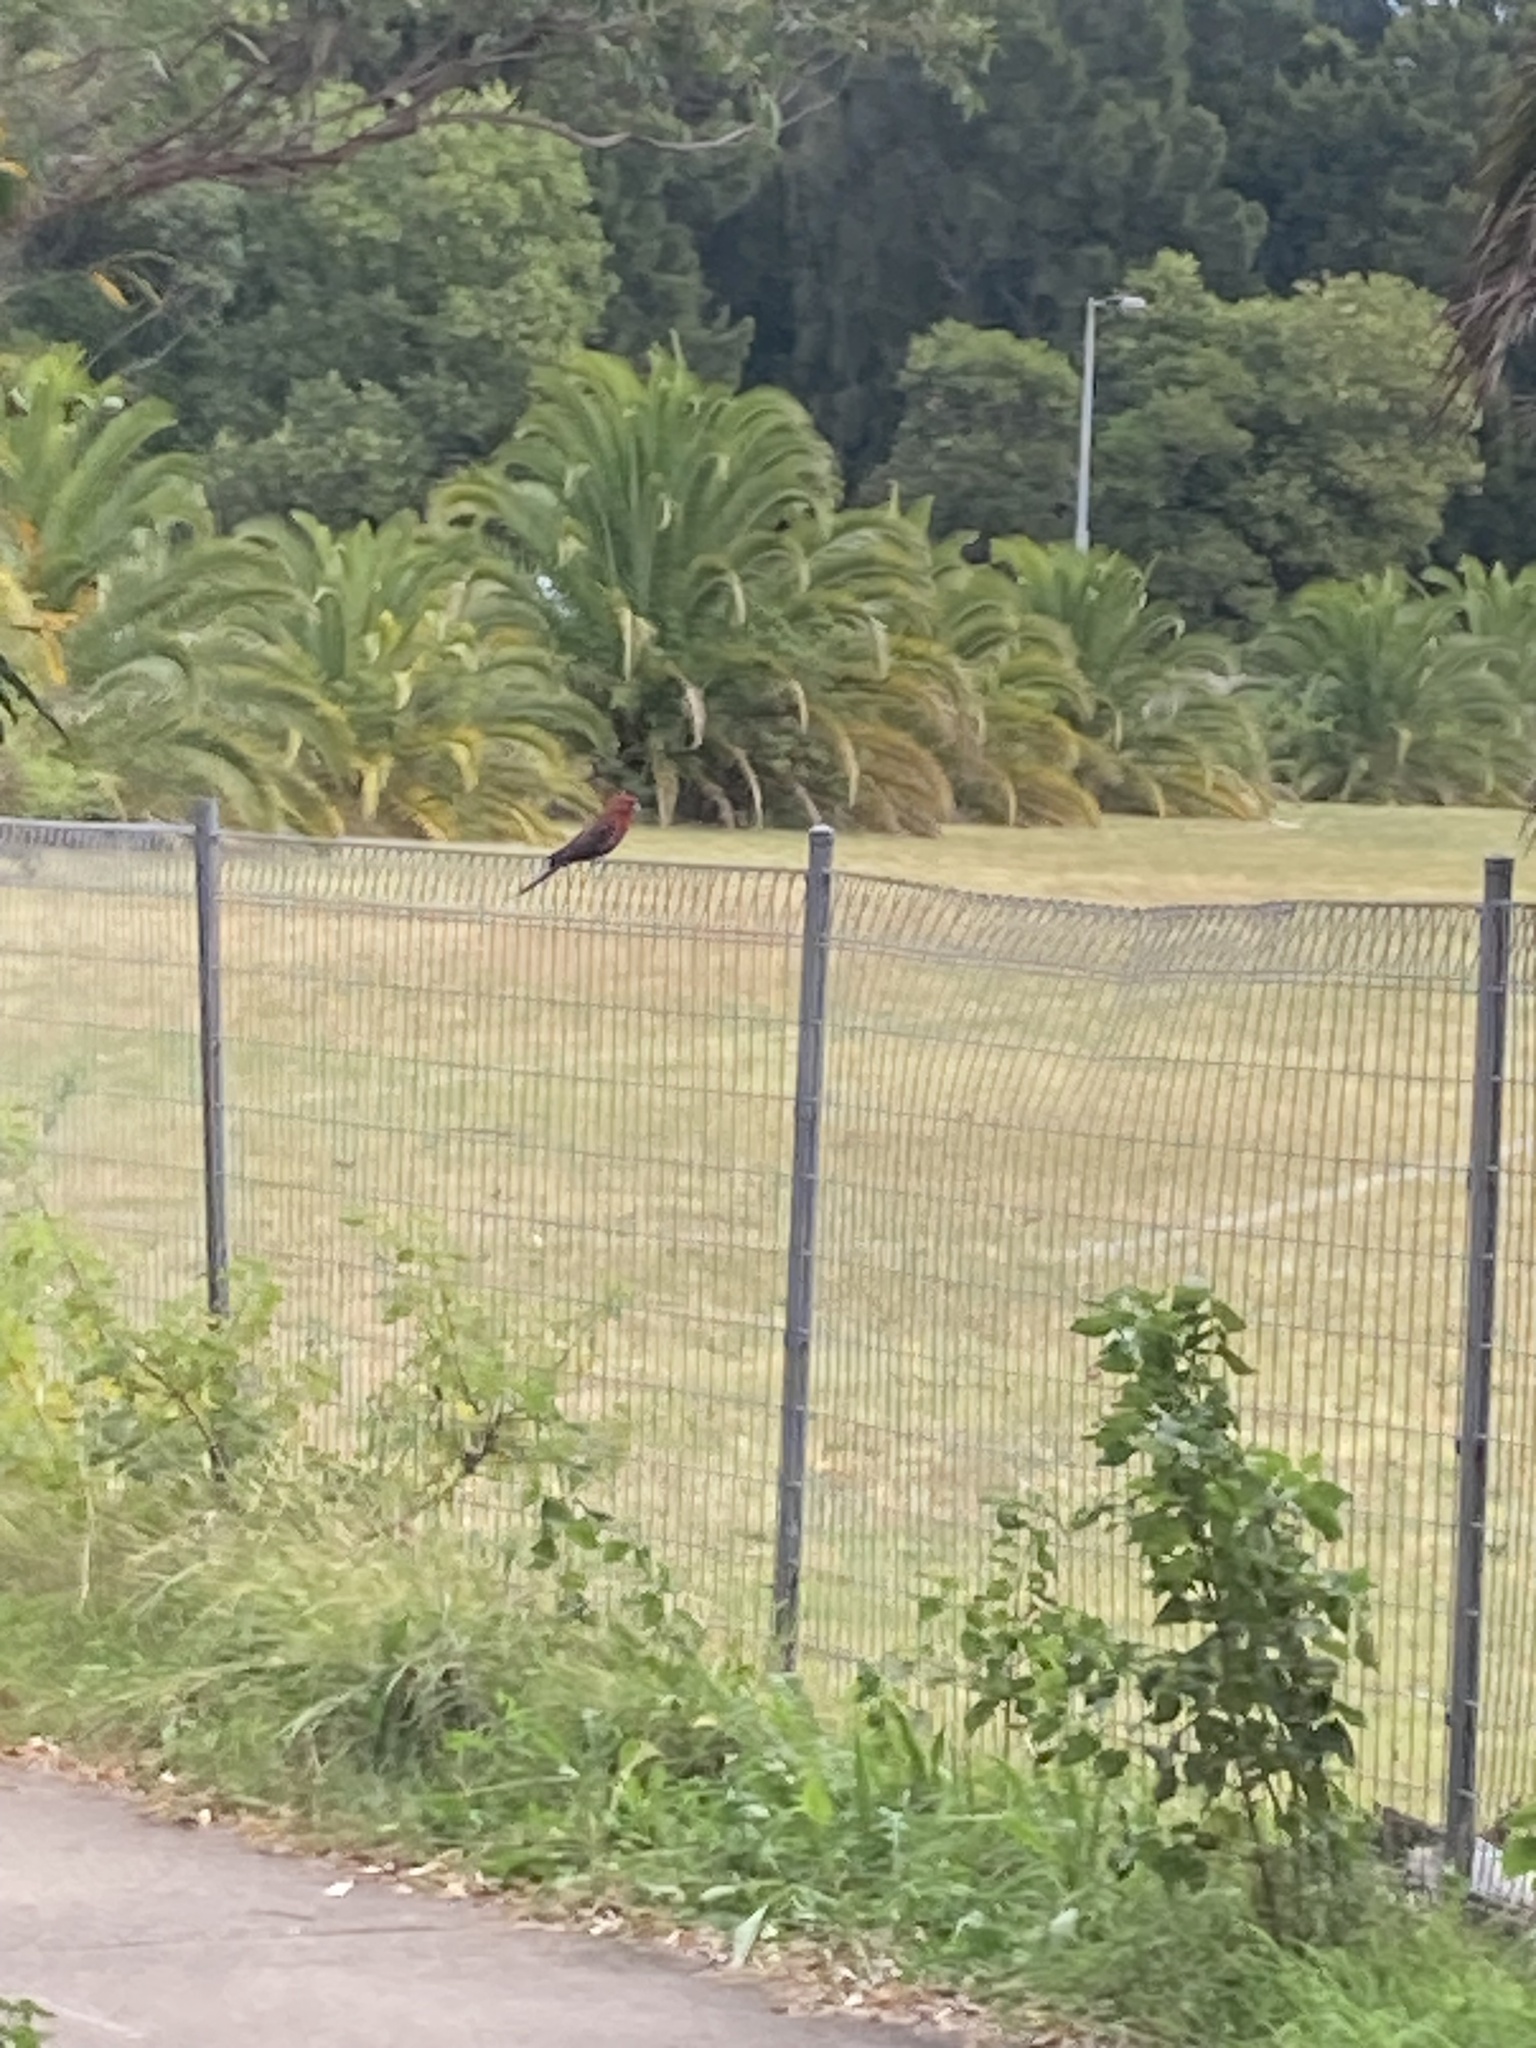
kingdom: Animalia
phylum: Chordata
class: Aves
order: Psittaciformes
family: Psittacidae
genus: Platycercus
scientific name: Platycercus elegans
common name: Crimson rosella
